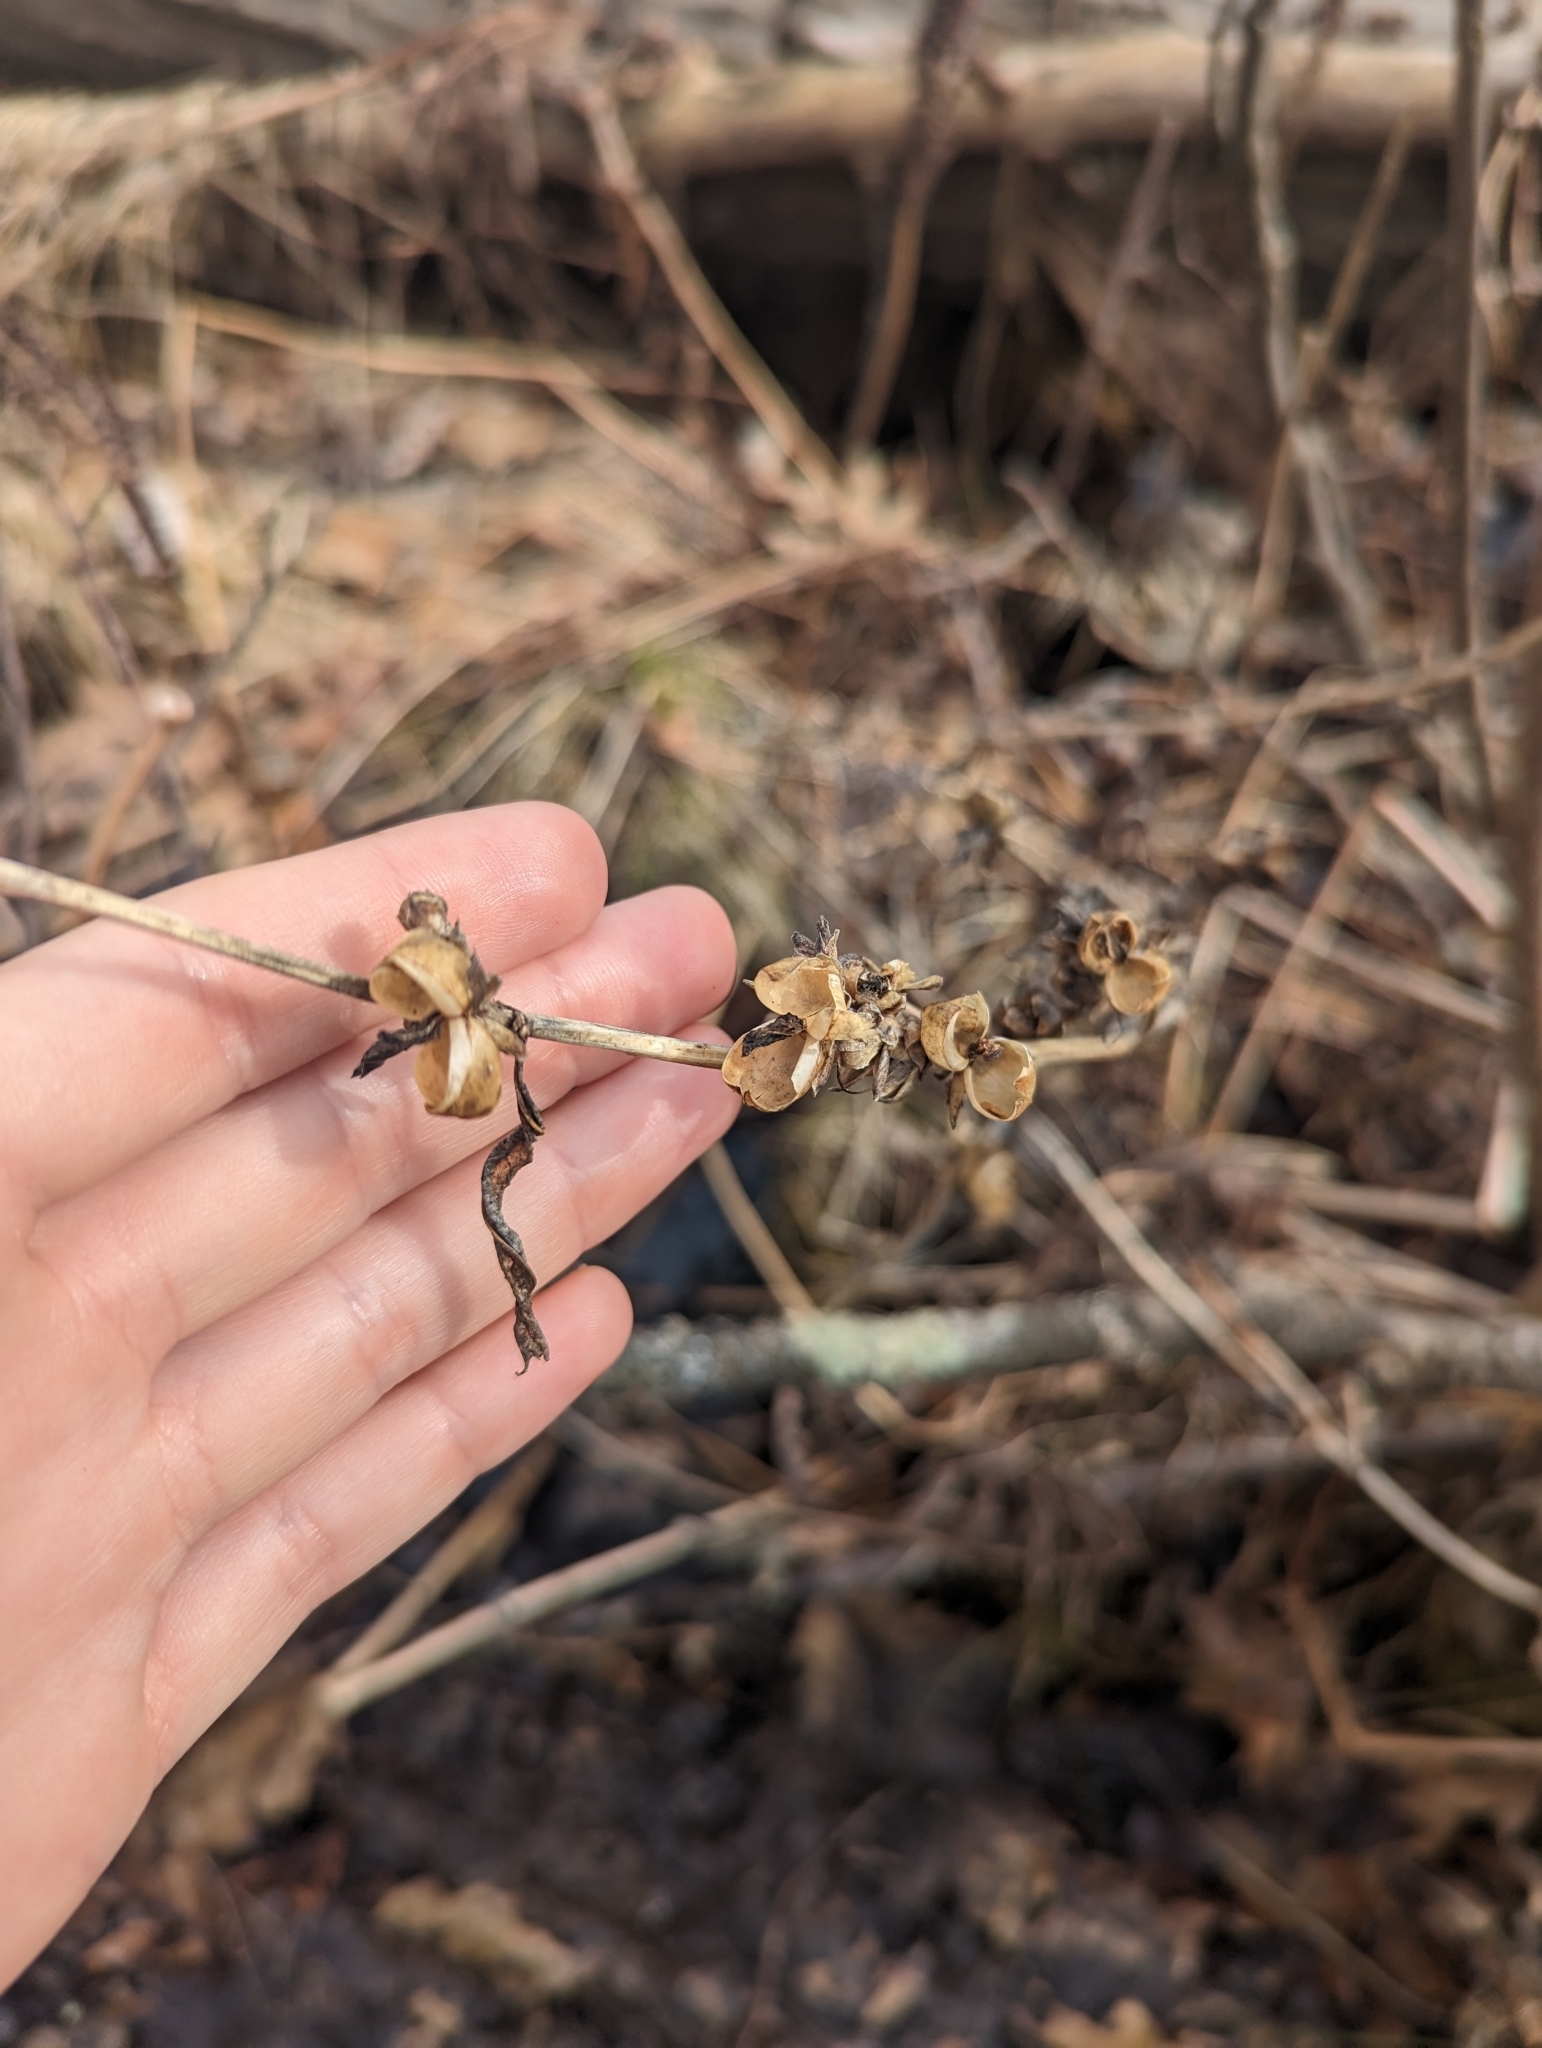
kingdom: Plantae
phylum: Tracheophyta
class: Magnoliopsida
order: Lamiales
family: Plantaginaceae
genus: Chelone
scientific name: Chelone glabra
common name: Snakehead
